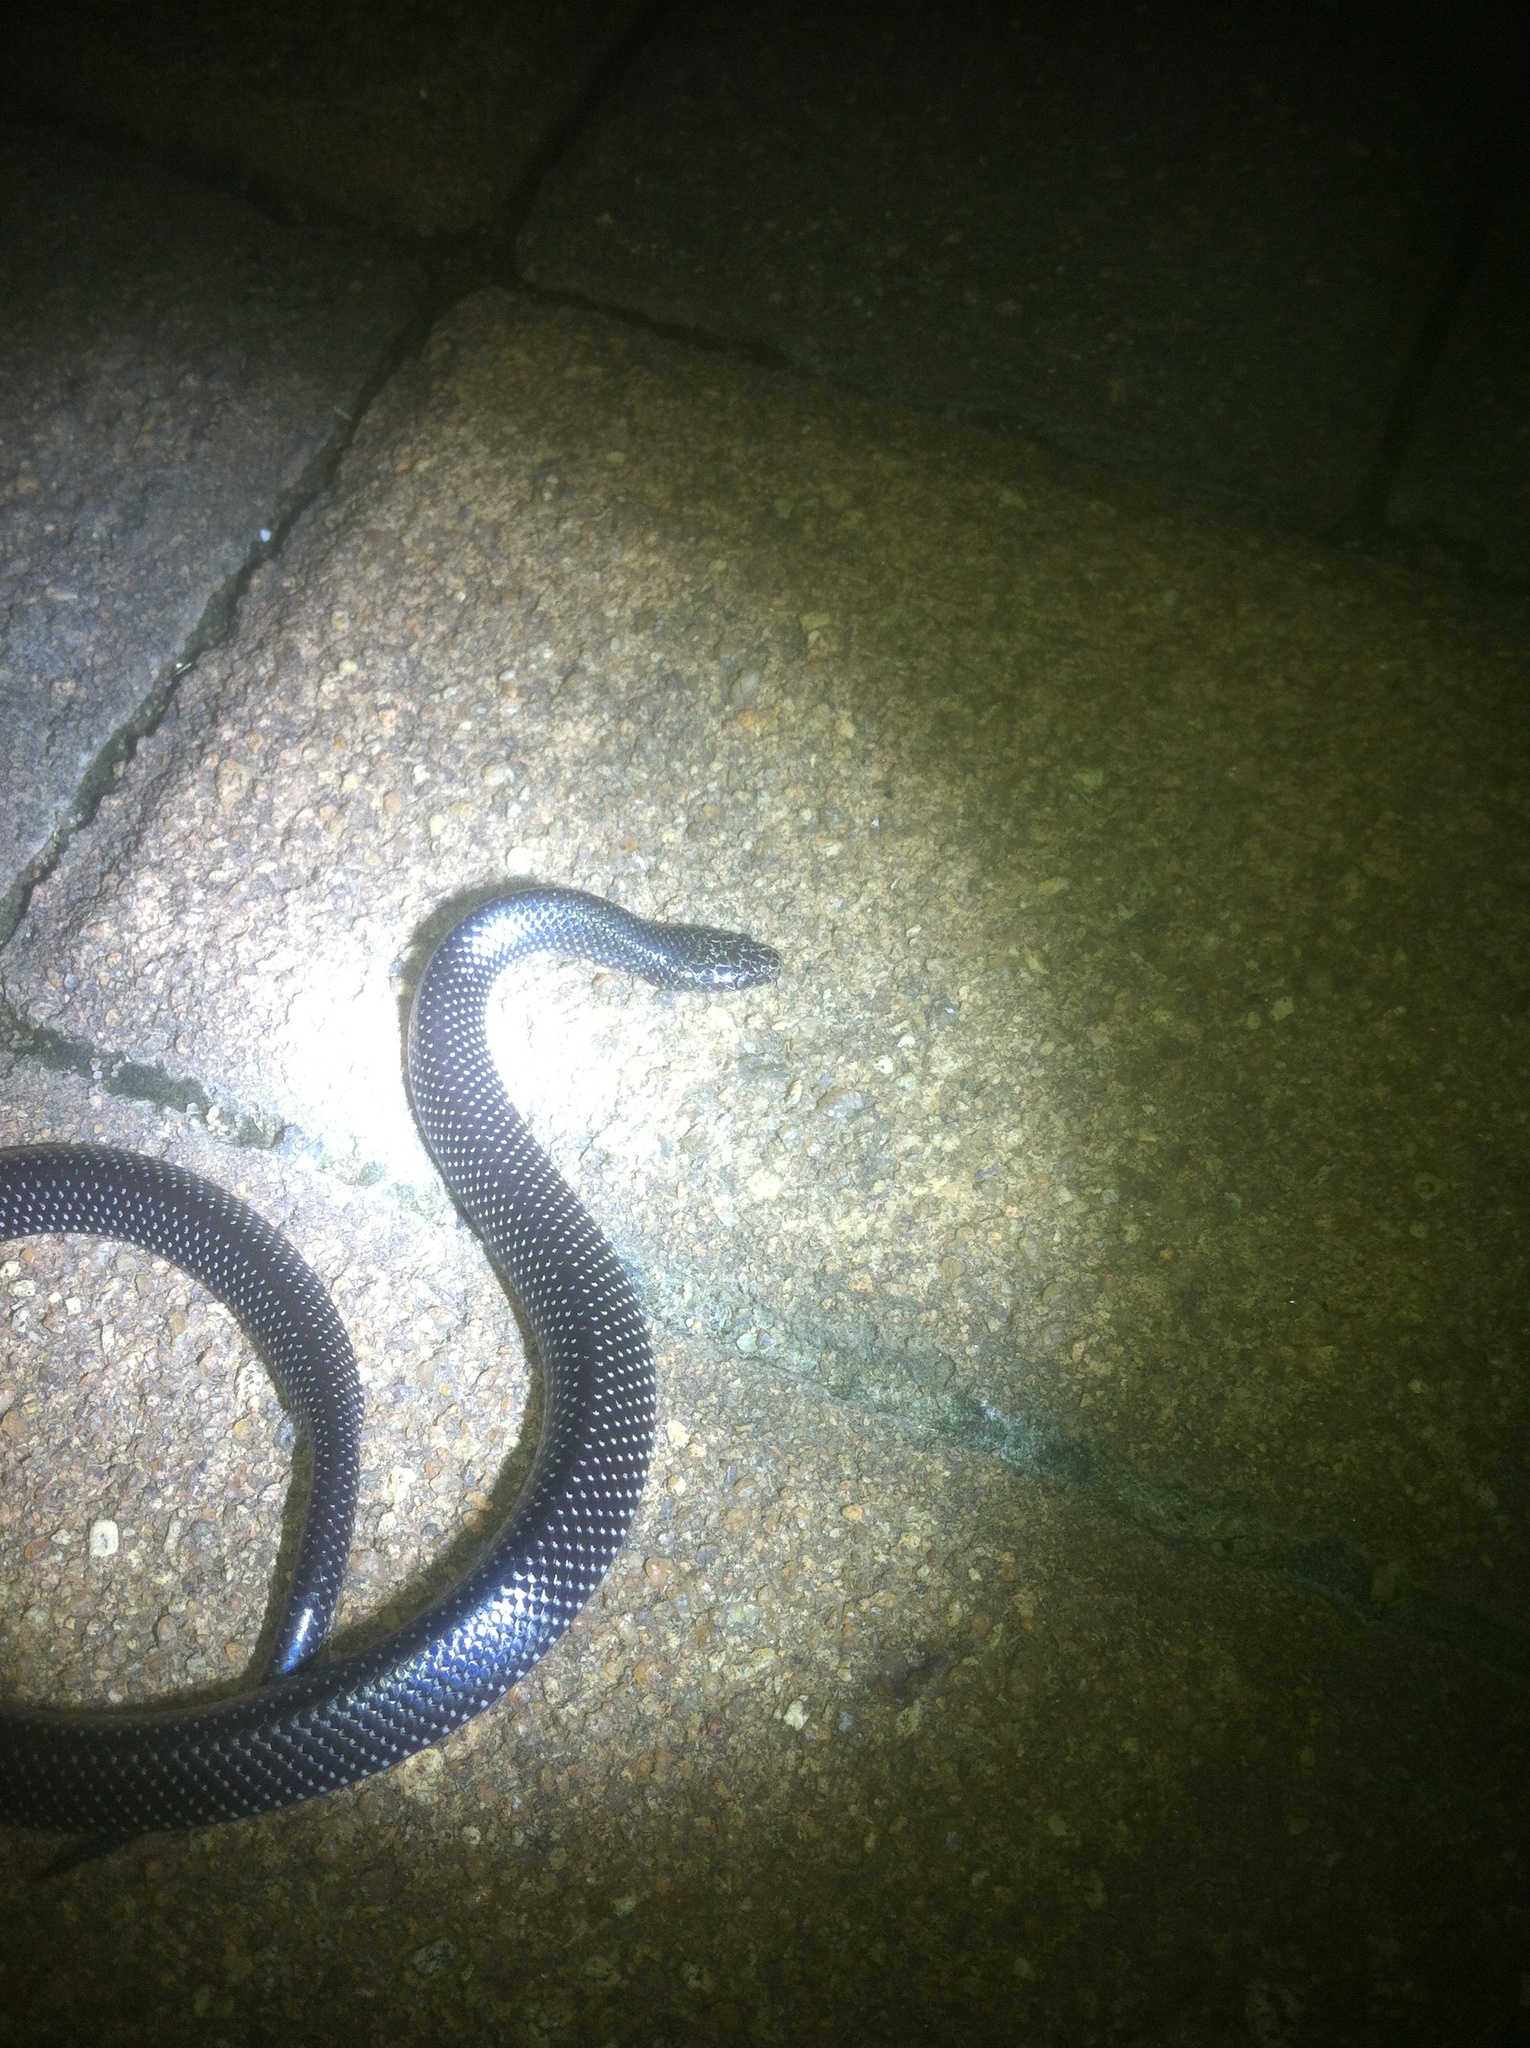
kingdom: Animalia
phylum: Chordata
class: Squamata
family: Lamprophiidae
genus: Lycophidion
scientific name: Lycophidion capense
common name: Cape wolf snake
